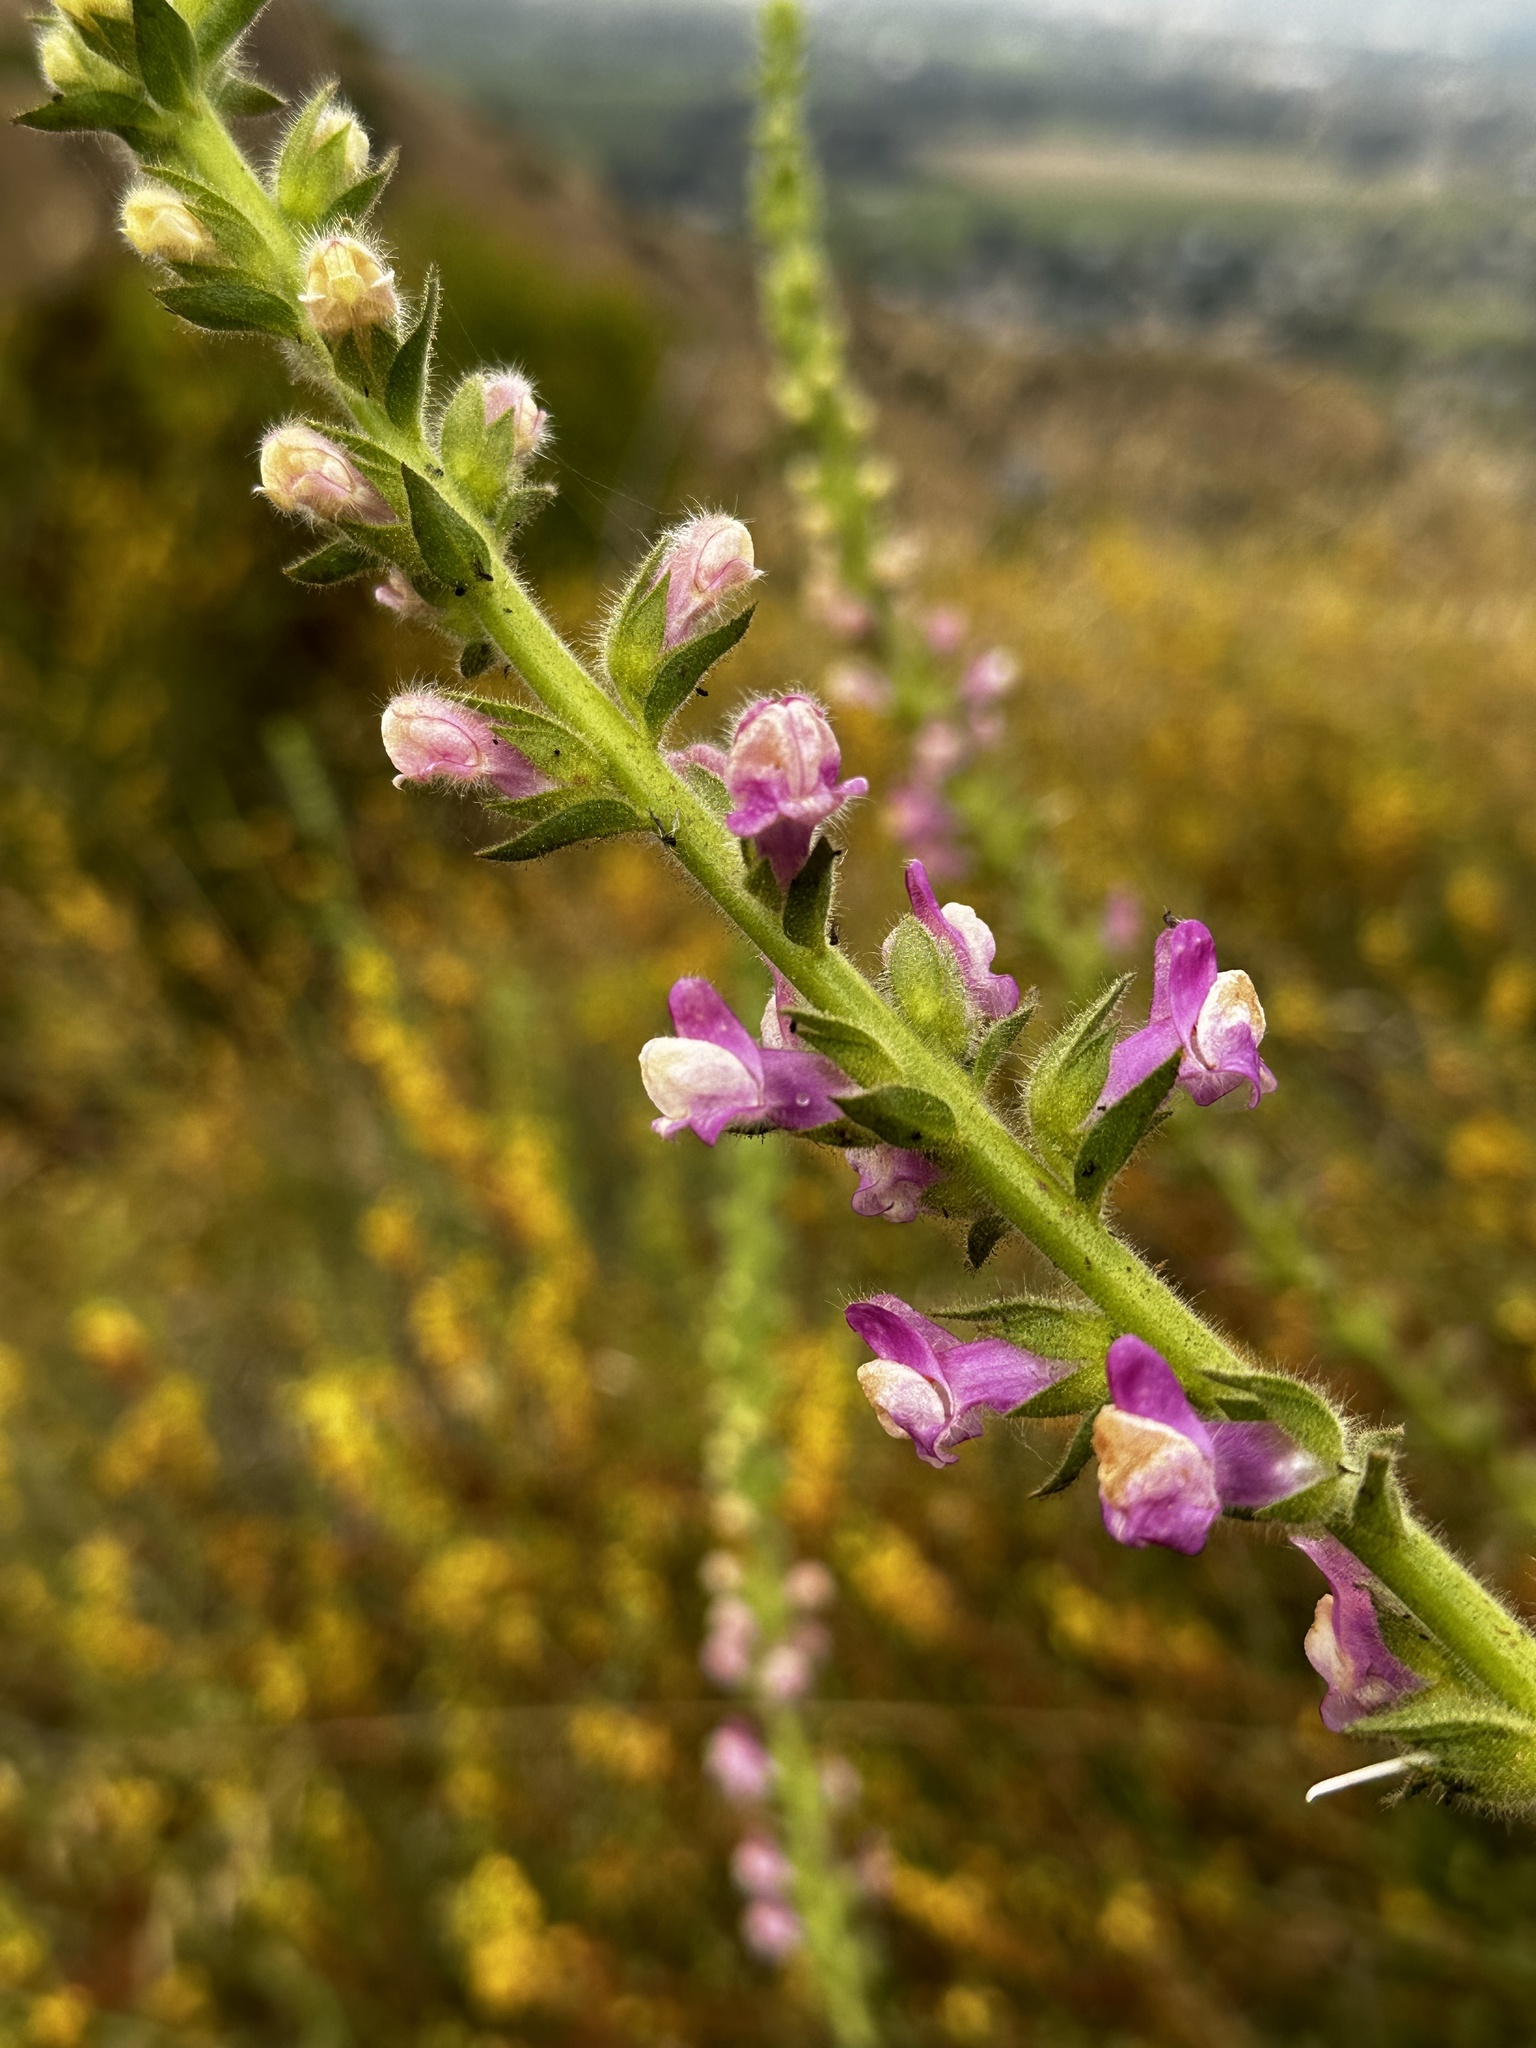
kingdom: Plantae
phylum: Tracheophyta
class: Magnoliopsida
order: Lamiales
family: Plantaginaceae
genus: Sairocarpus
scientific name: Sairocarpus multiflorus
